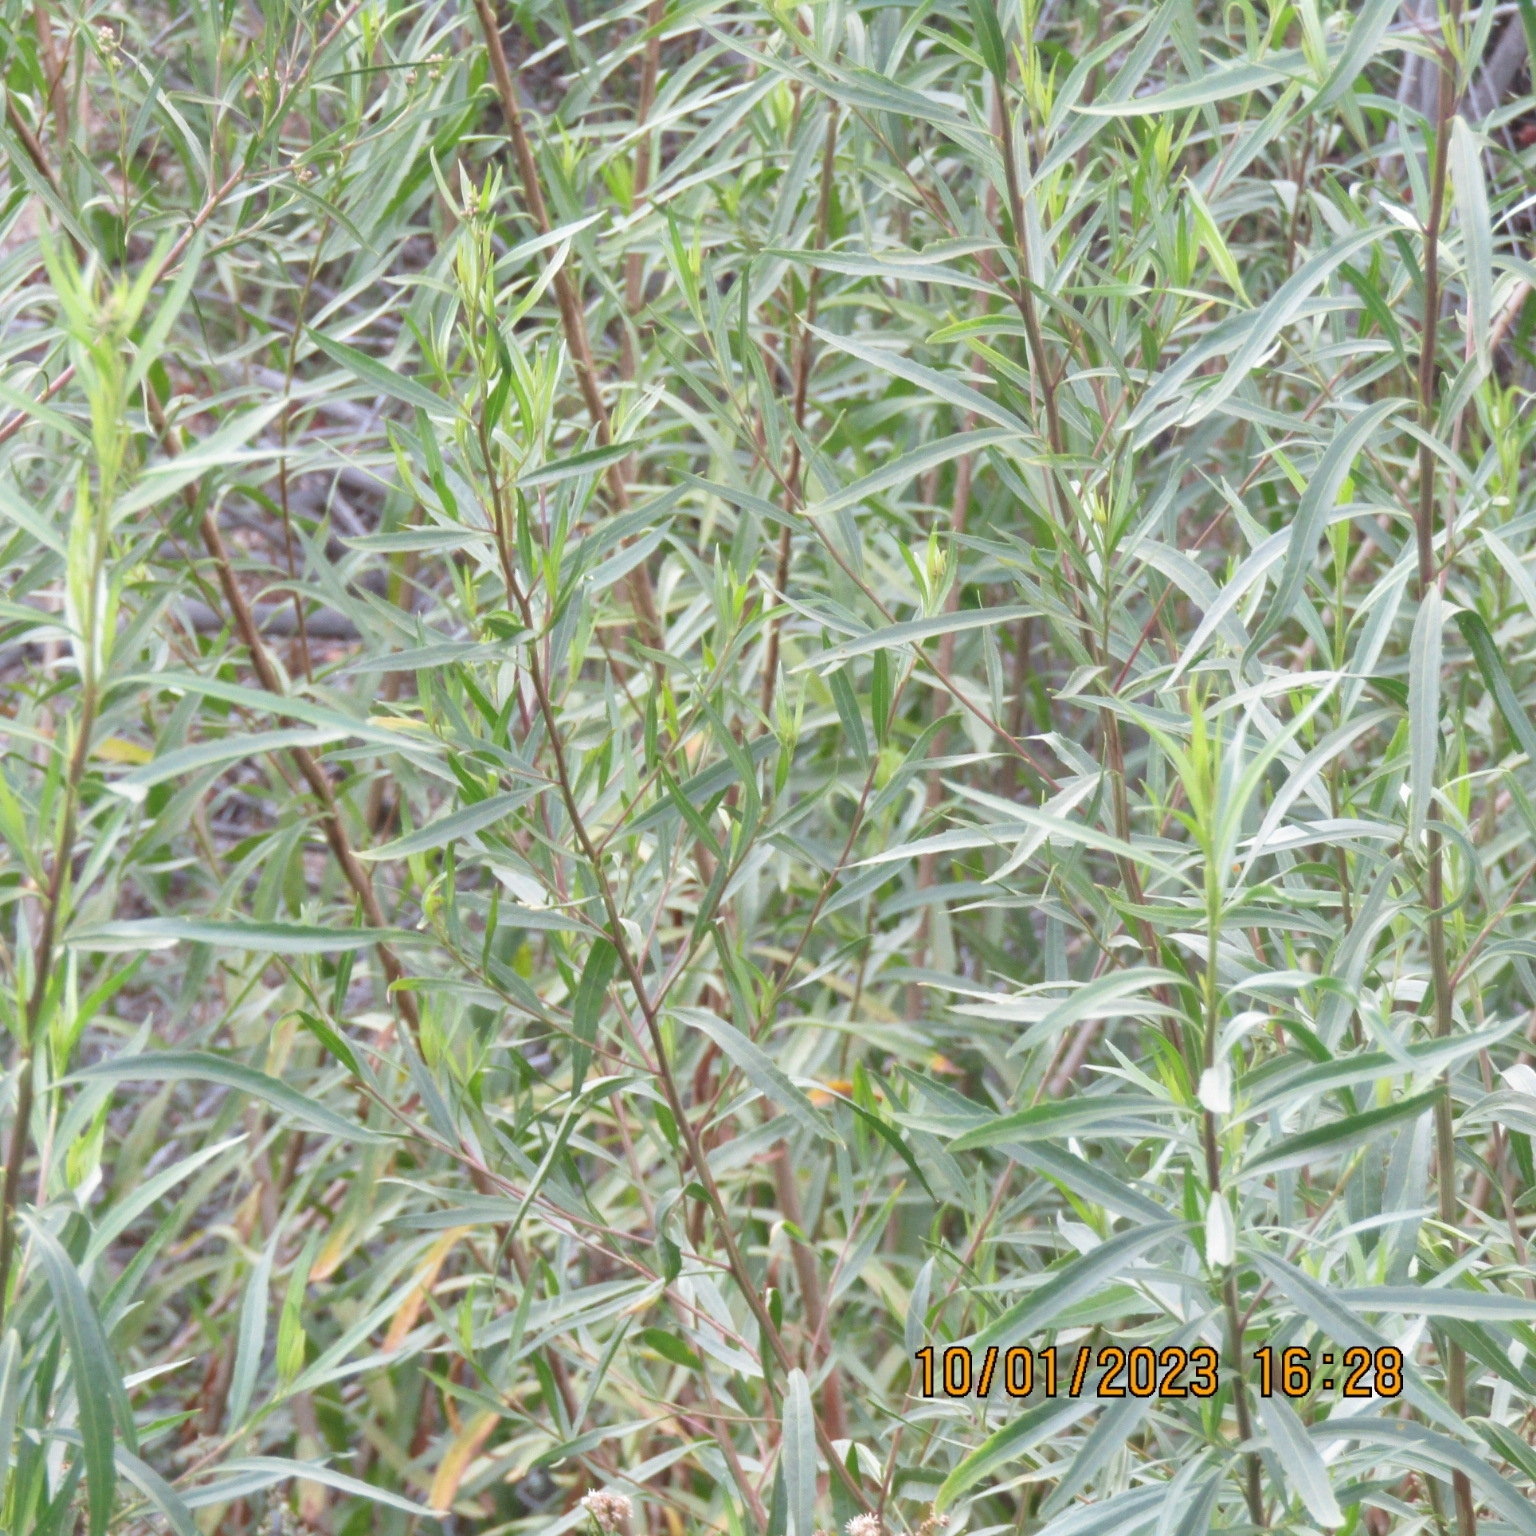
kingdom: Plantae
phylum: Tracheophyta
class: Magnoliopsida
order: Asterales
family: Asteraceae
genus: Baccharis
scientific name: Baccharis salicifolia
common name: Sticky baccharis
